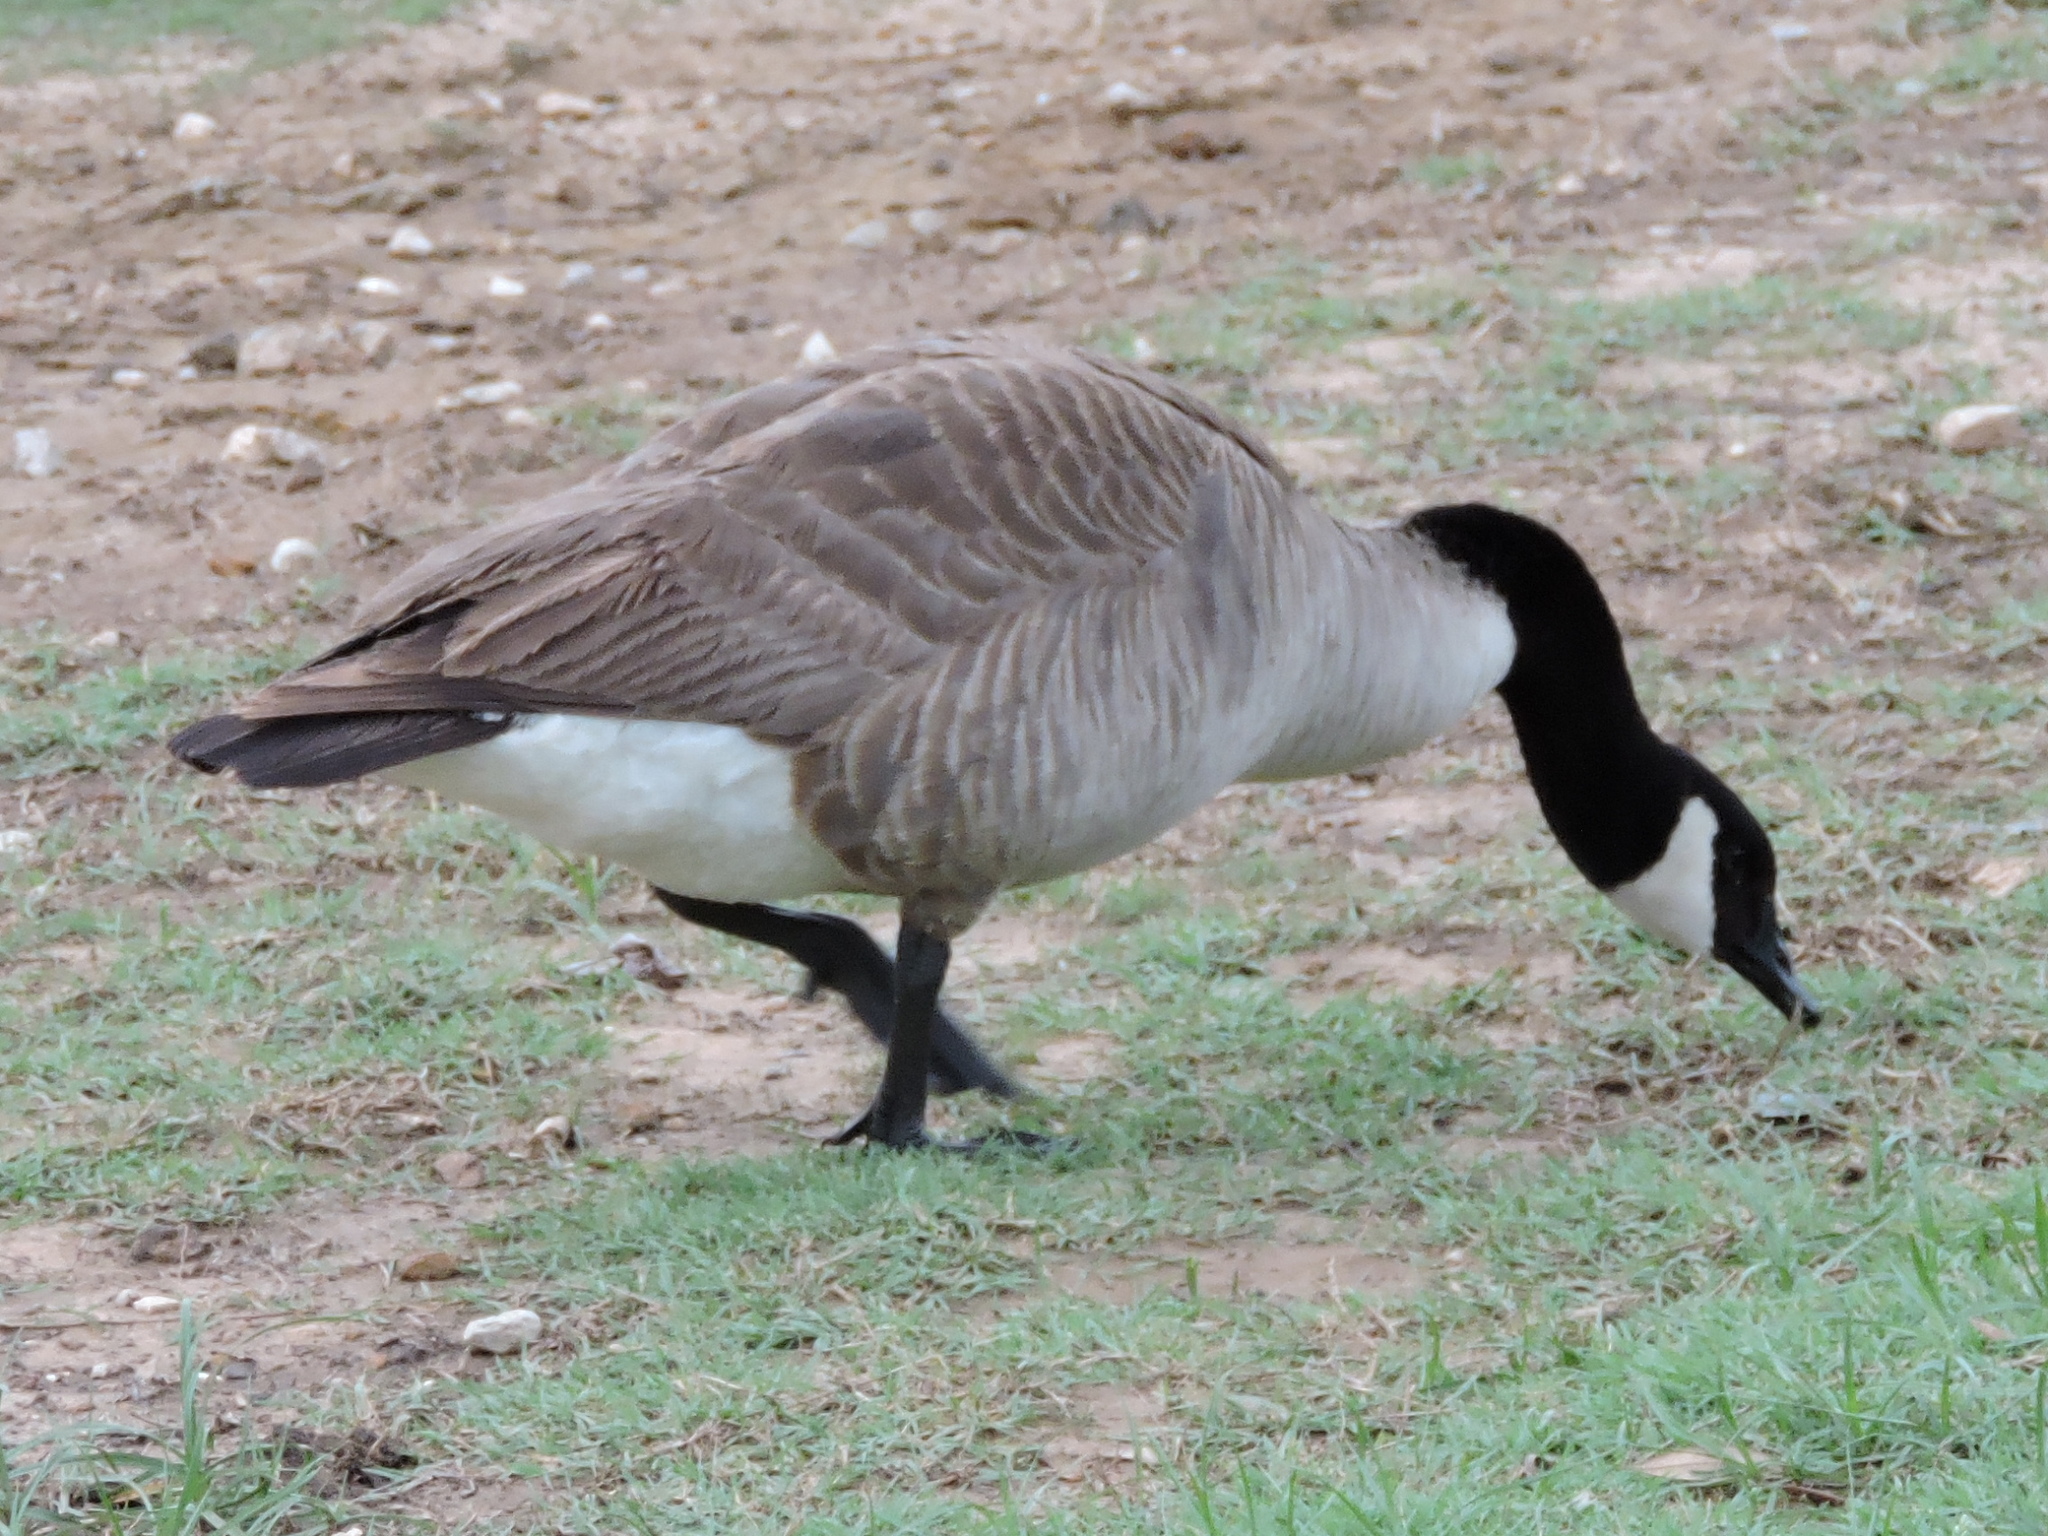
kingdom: Animalia
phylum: Chordata
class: Aves
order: Anseriformes
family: Anatidae
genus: Branta
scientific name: Branta canadensis
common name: Canada goose
